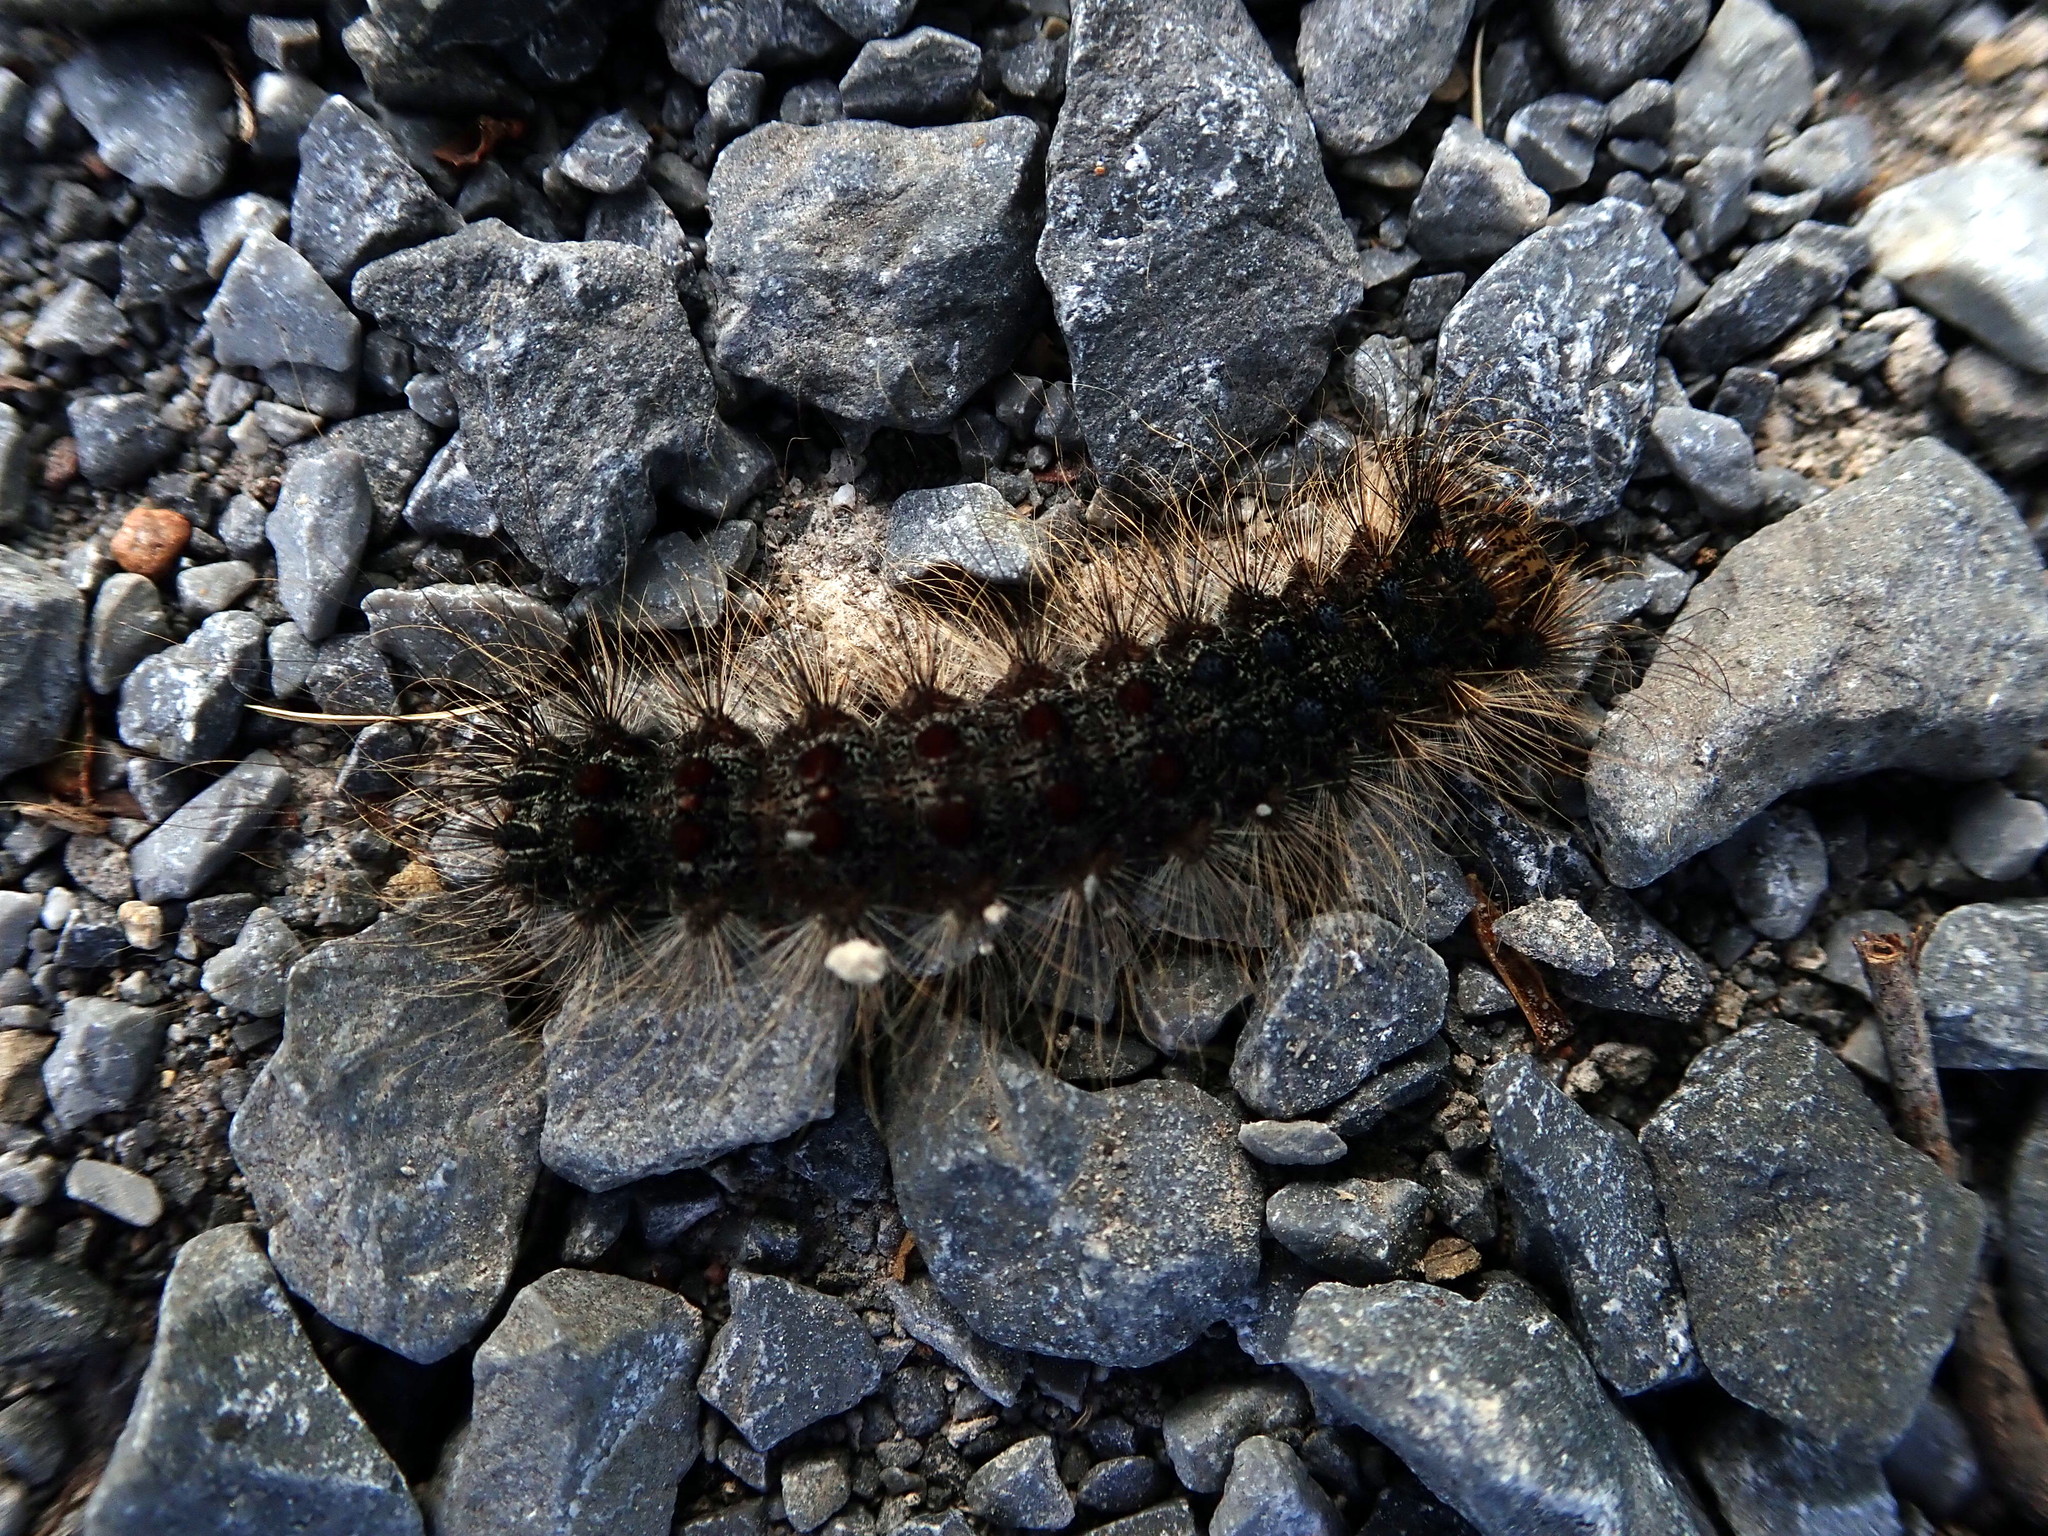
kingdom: Animalia
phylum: Arthropoda
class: Insecta
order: Lepidoptera
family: Erebidae
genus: Lymantria
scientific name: Lymantria dispar
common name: Gypsy moth
